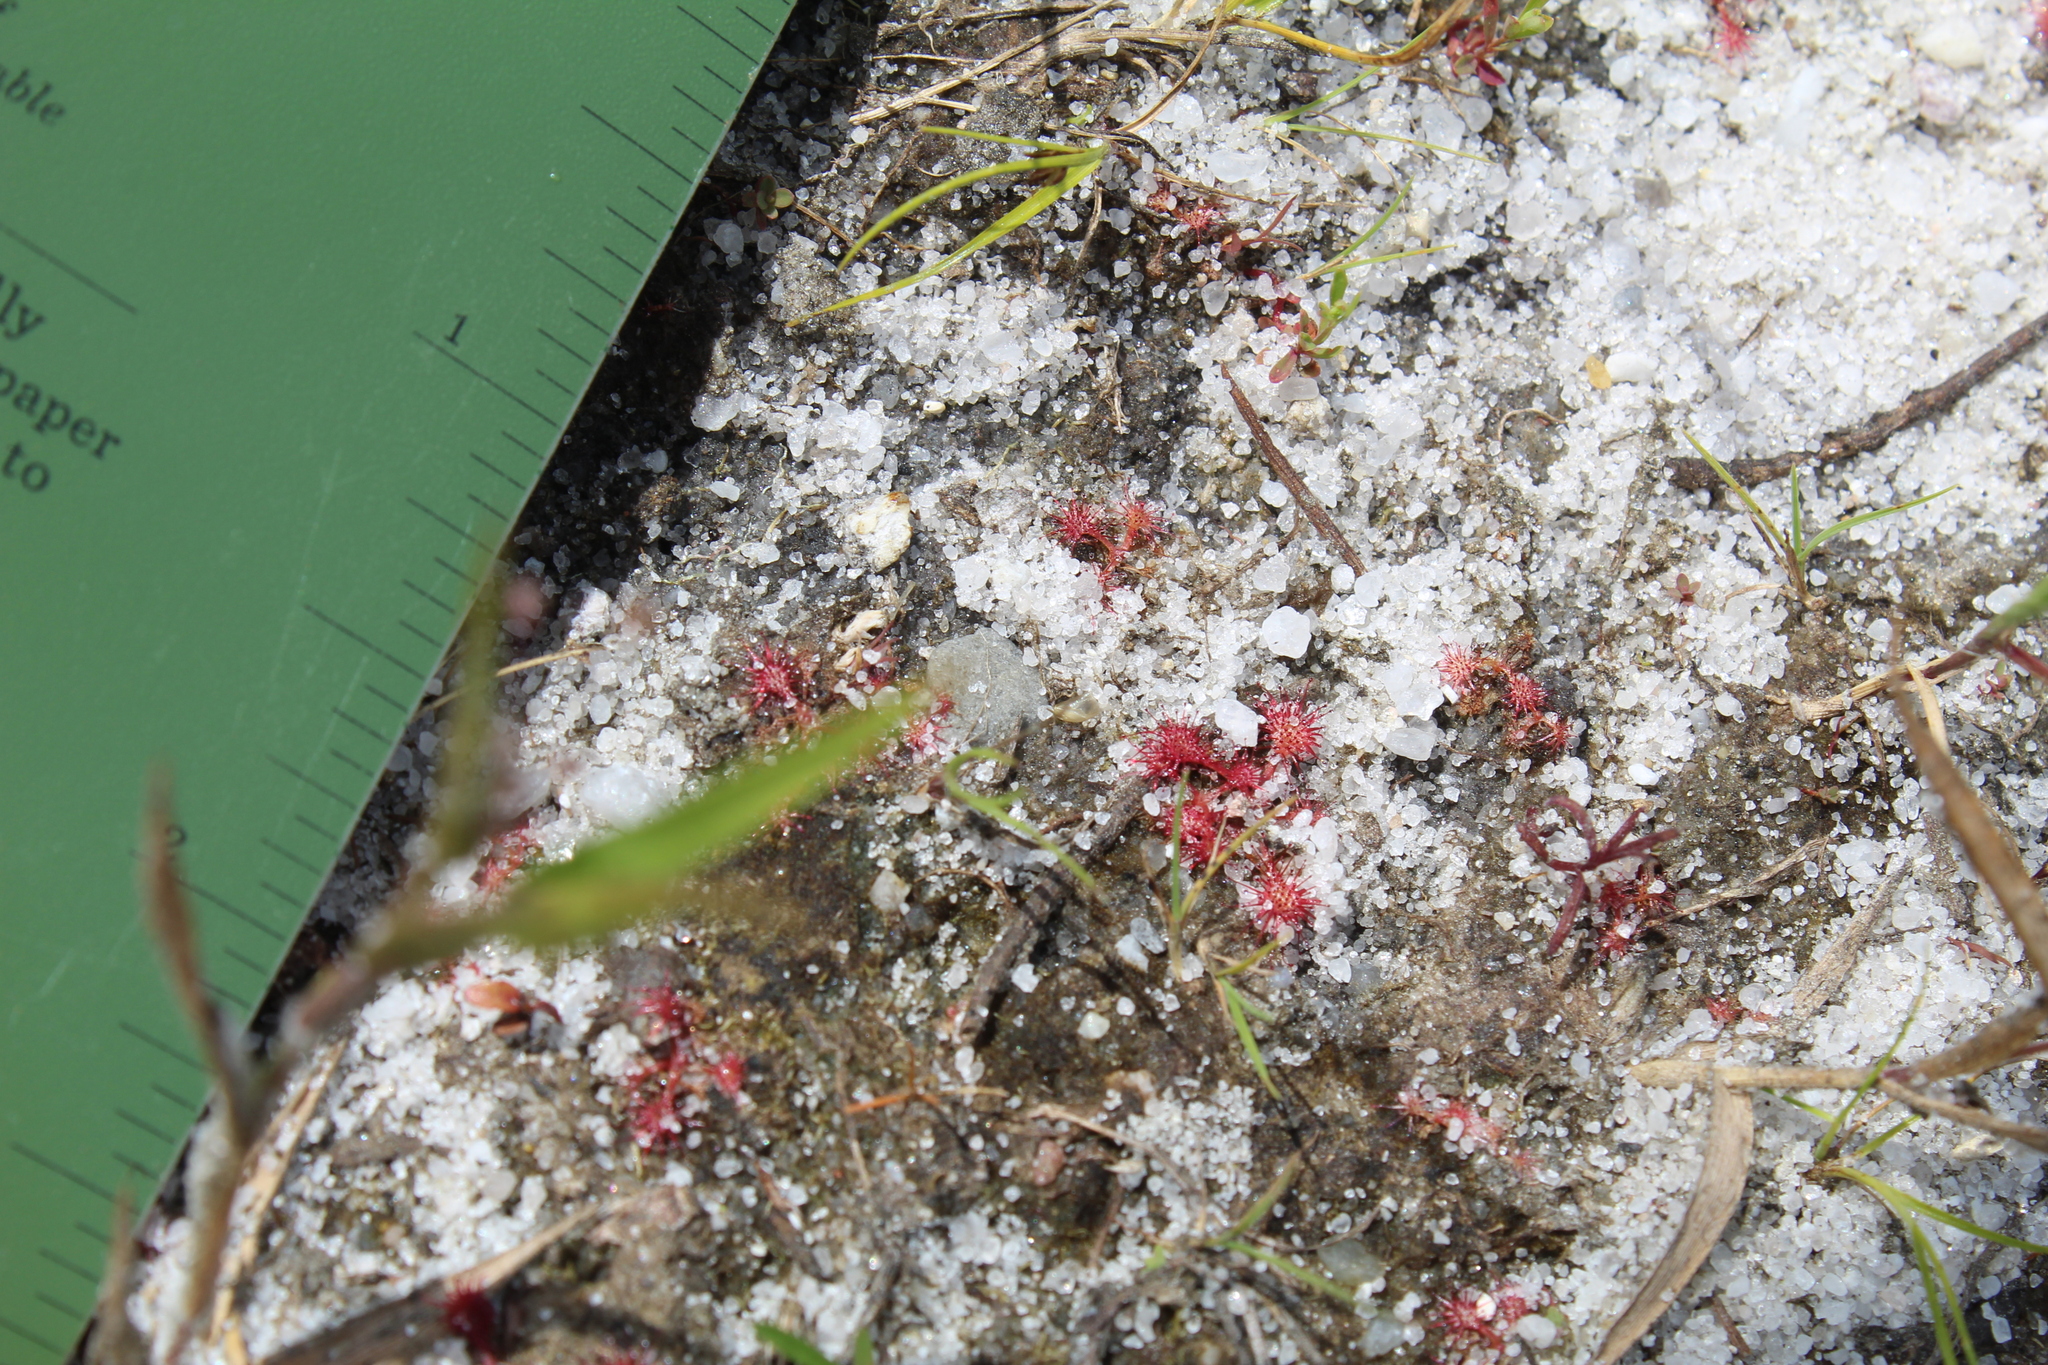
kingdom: Plantae
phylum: Tracheophyta
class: Magnoliopsida
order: Caryophyllales
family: Droseraceae
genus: Drosera
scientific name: Drosera intermedia
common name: Oblong-leaved sundew
